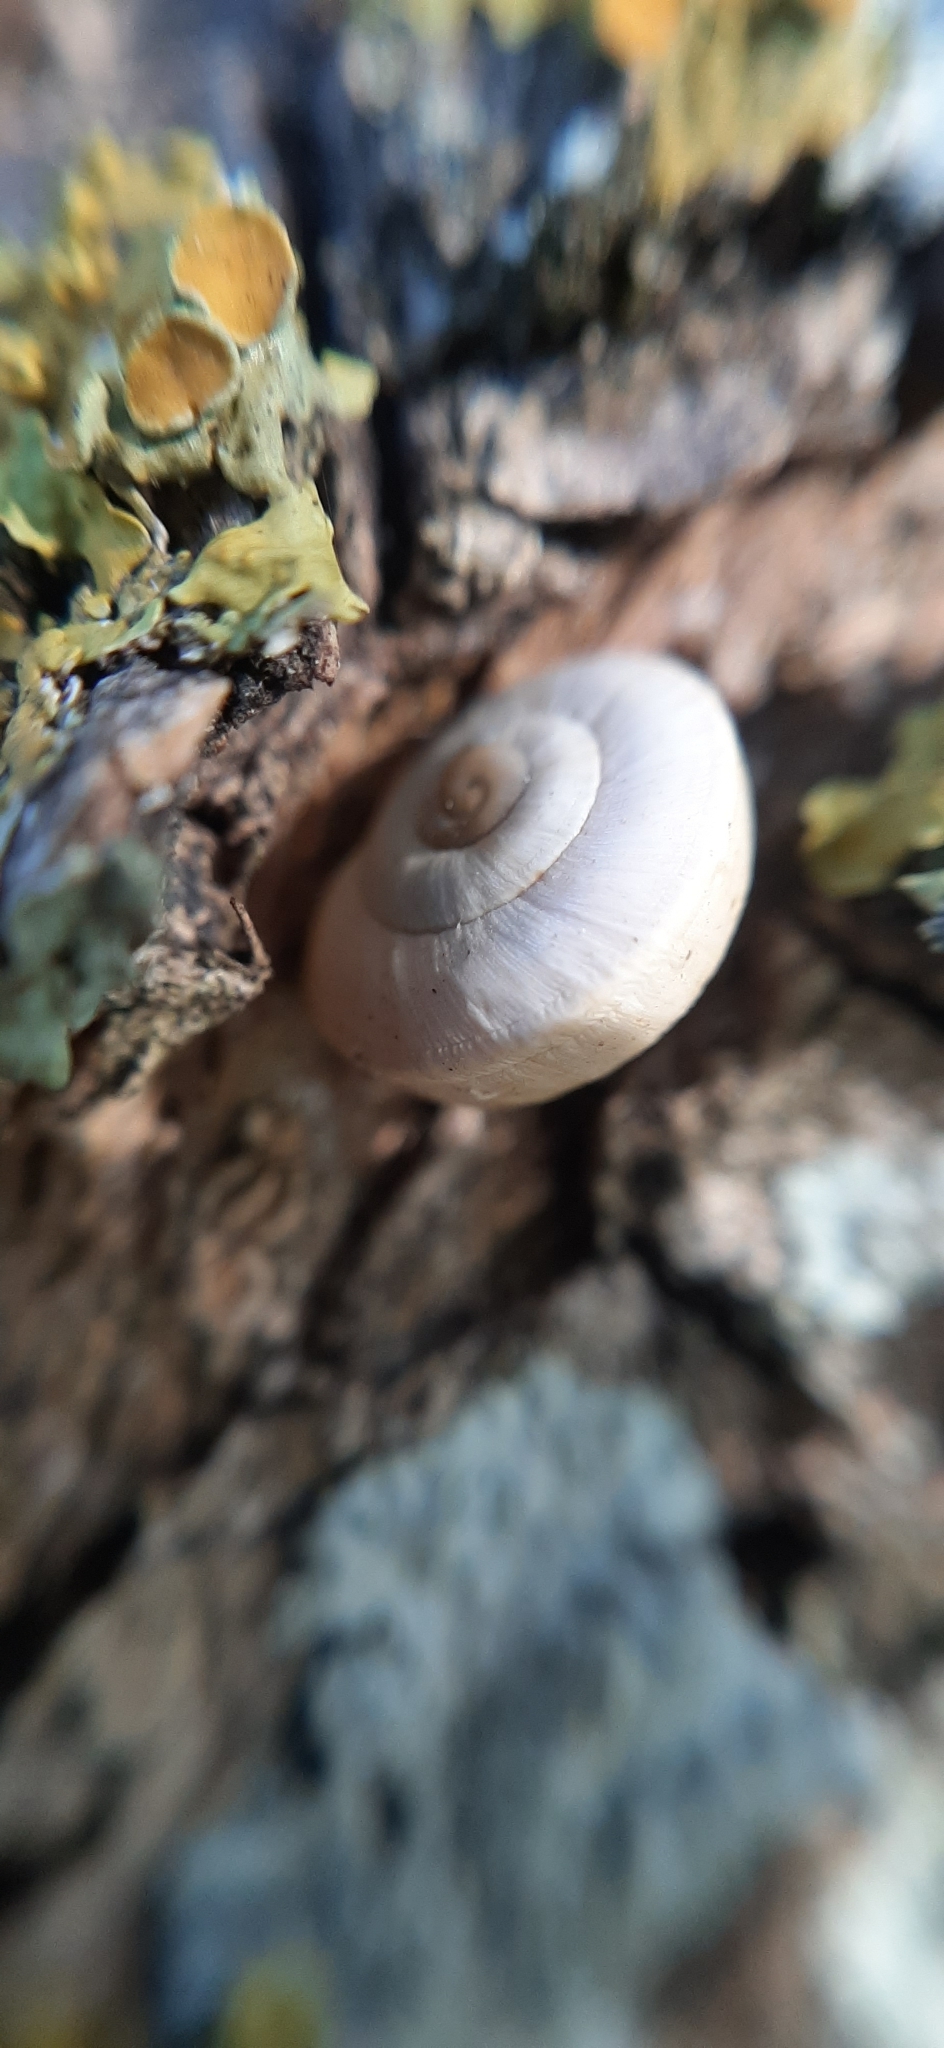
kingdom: Animalia
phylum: Mollusca
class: Gastropoda
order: Stylommatophora
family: Helicidae
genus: Theba
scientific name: Theba pisana
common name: White snail
